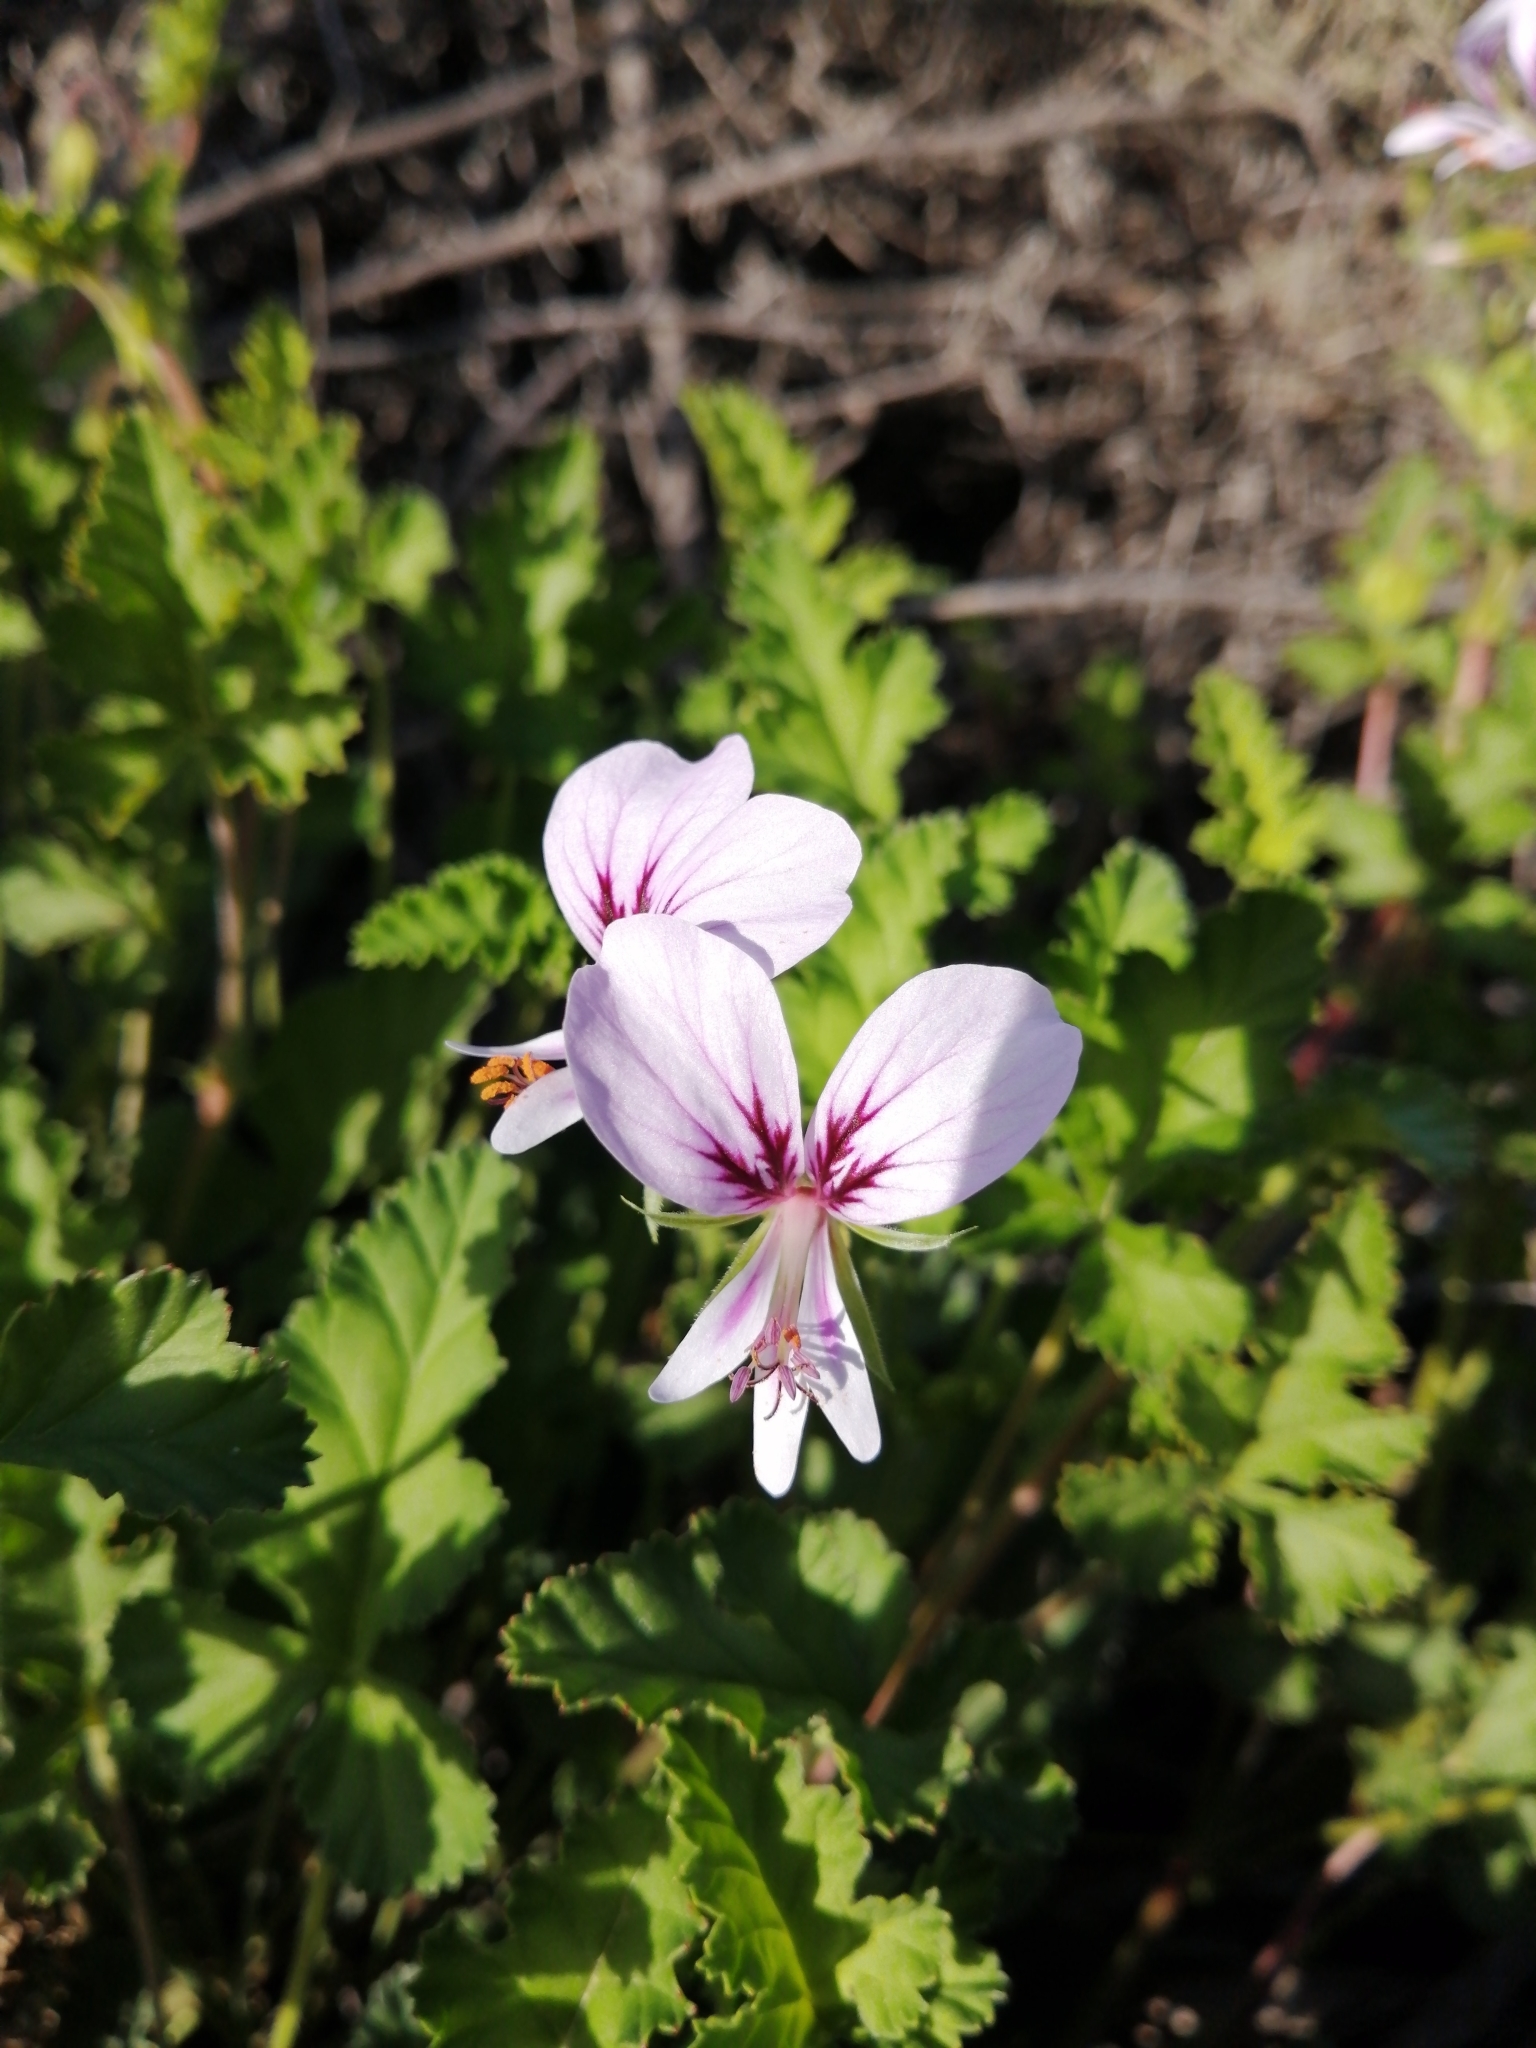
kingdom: Plantae
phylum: Tracheophyta
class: Magnoliopsida
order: Geraniales
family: Geraniaceae
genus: Pelargonium
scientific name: Pelargonium candicans
